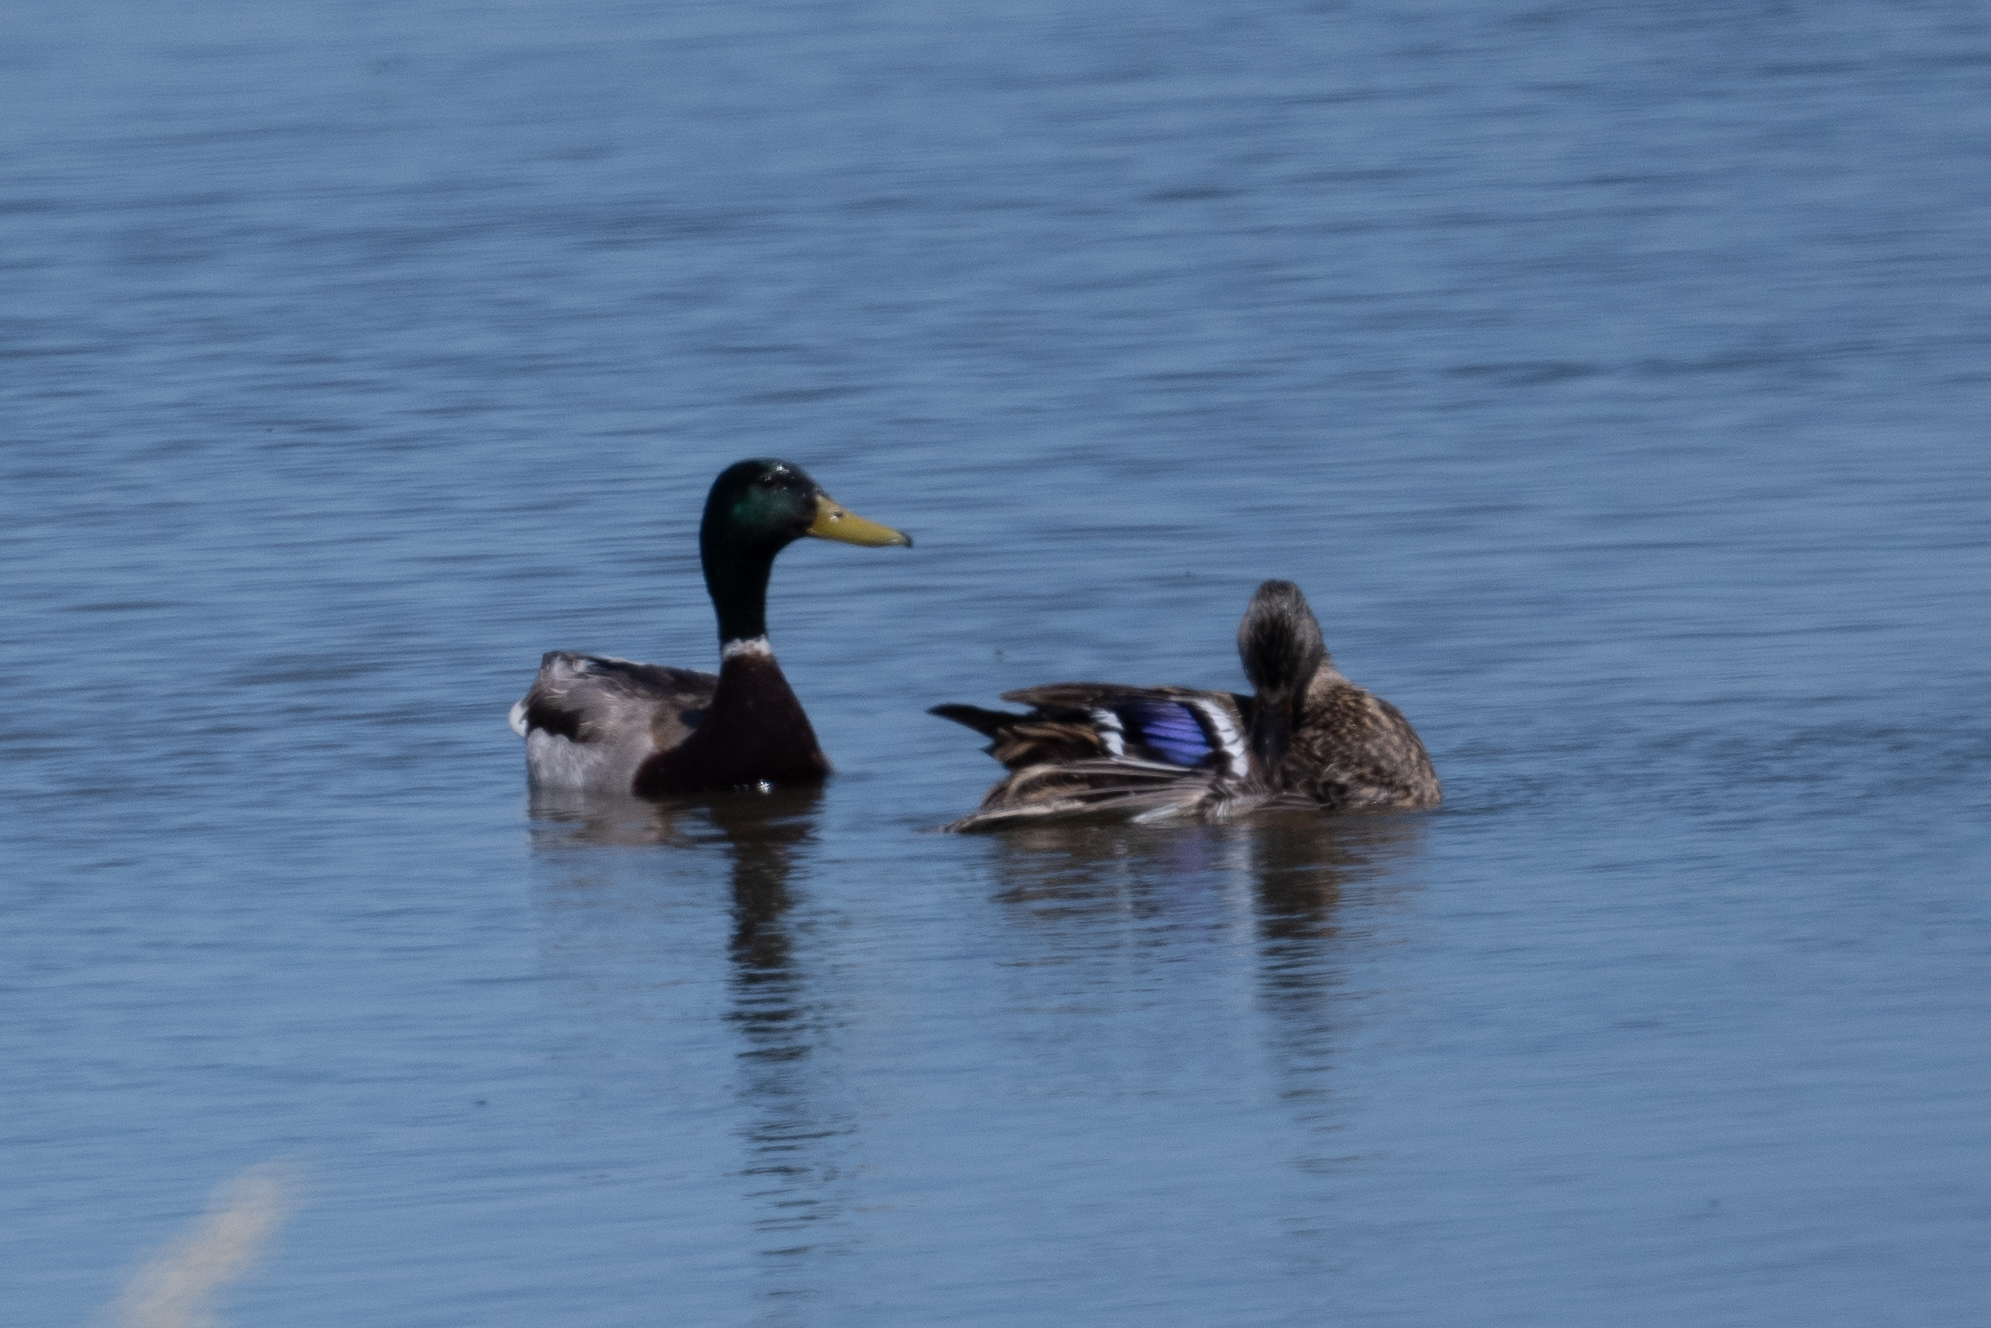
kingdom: Animalia
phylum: Chordata
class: Aves
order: Anseriformes
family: Anatidae
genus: Anas
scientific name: Anas platyrhynchos
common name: Mallard
